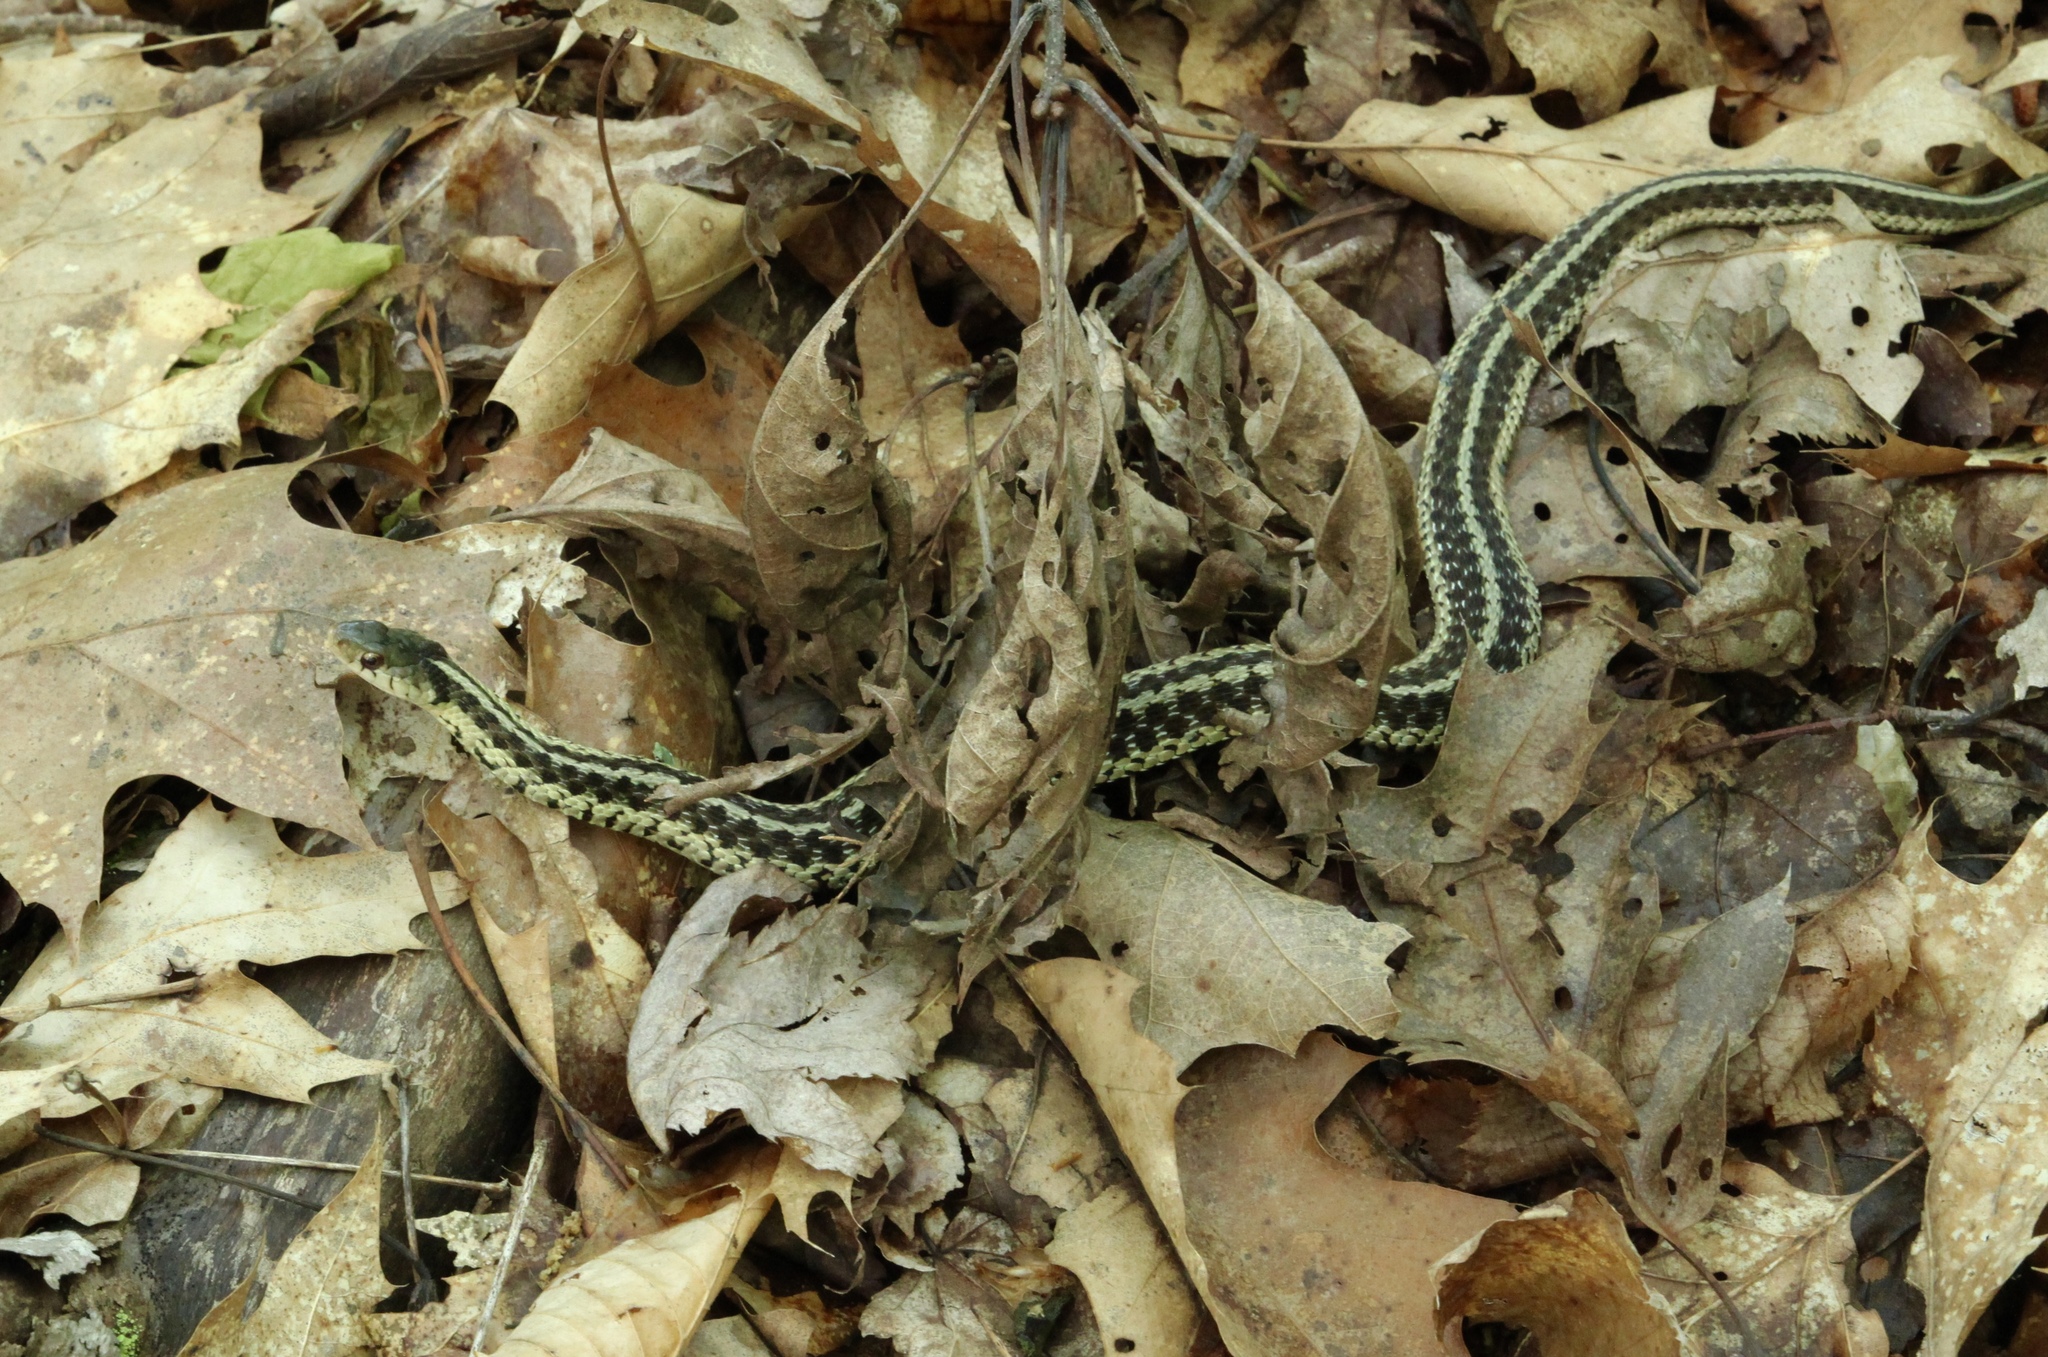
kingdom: Animalia
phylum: Chordata
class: Squamata
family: Colubridae
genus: Thamnophis
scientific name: Thamnophis sirtalis
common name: Common garter snake
